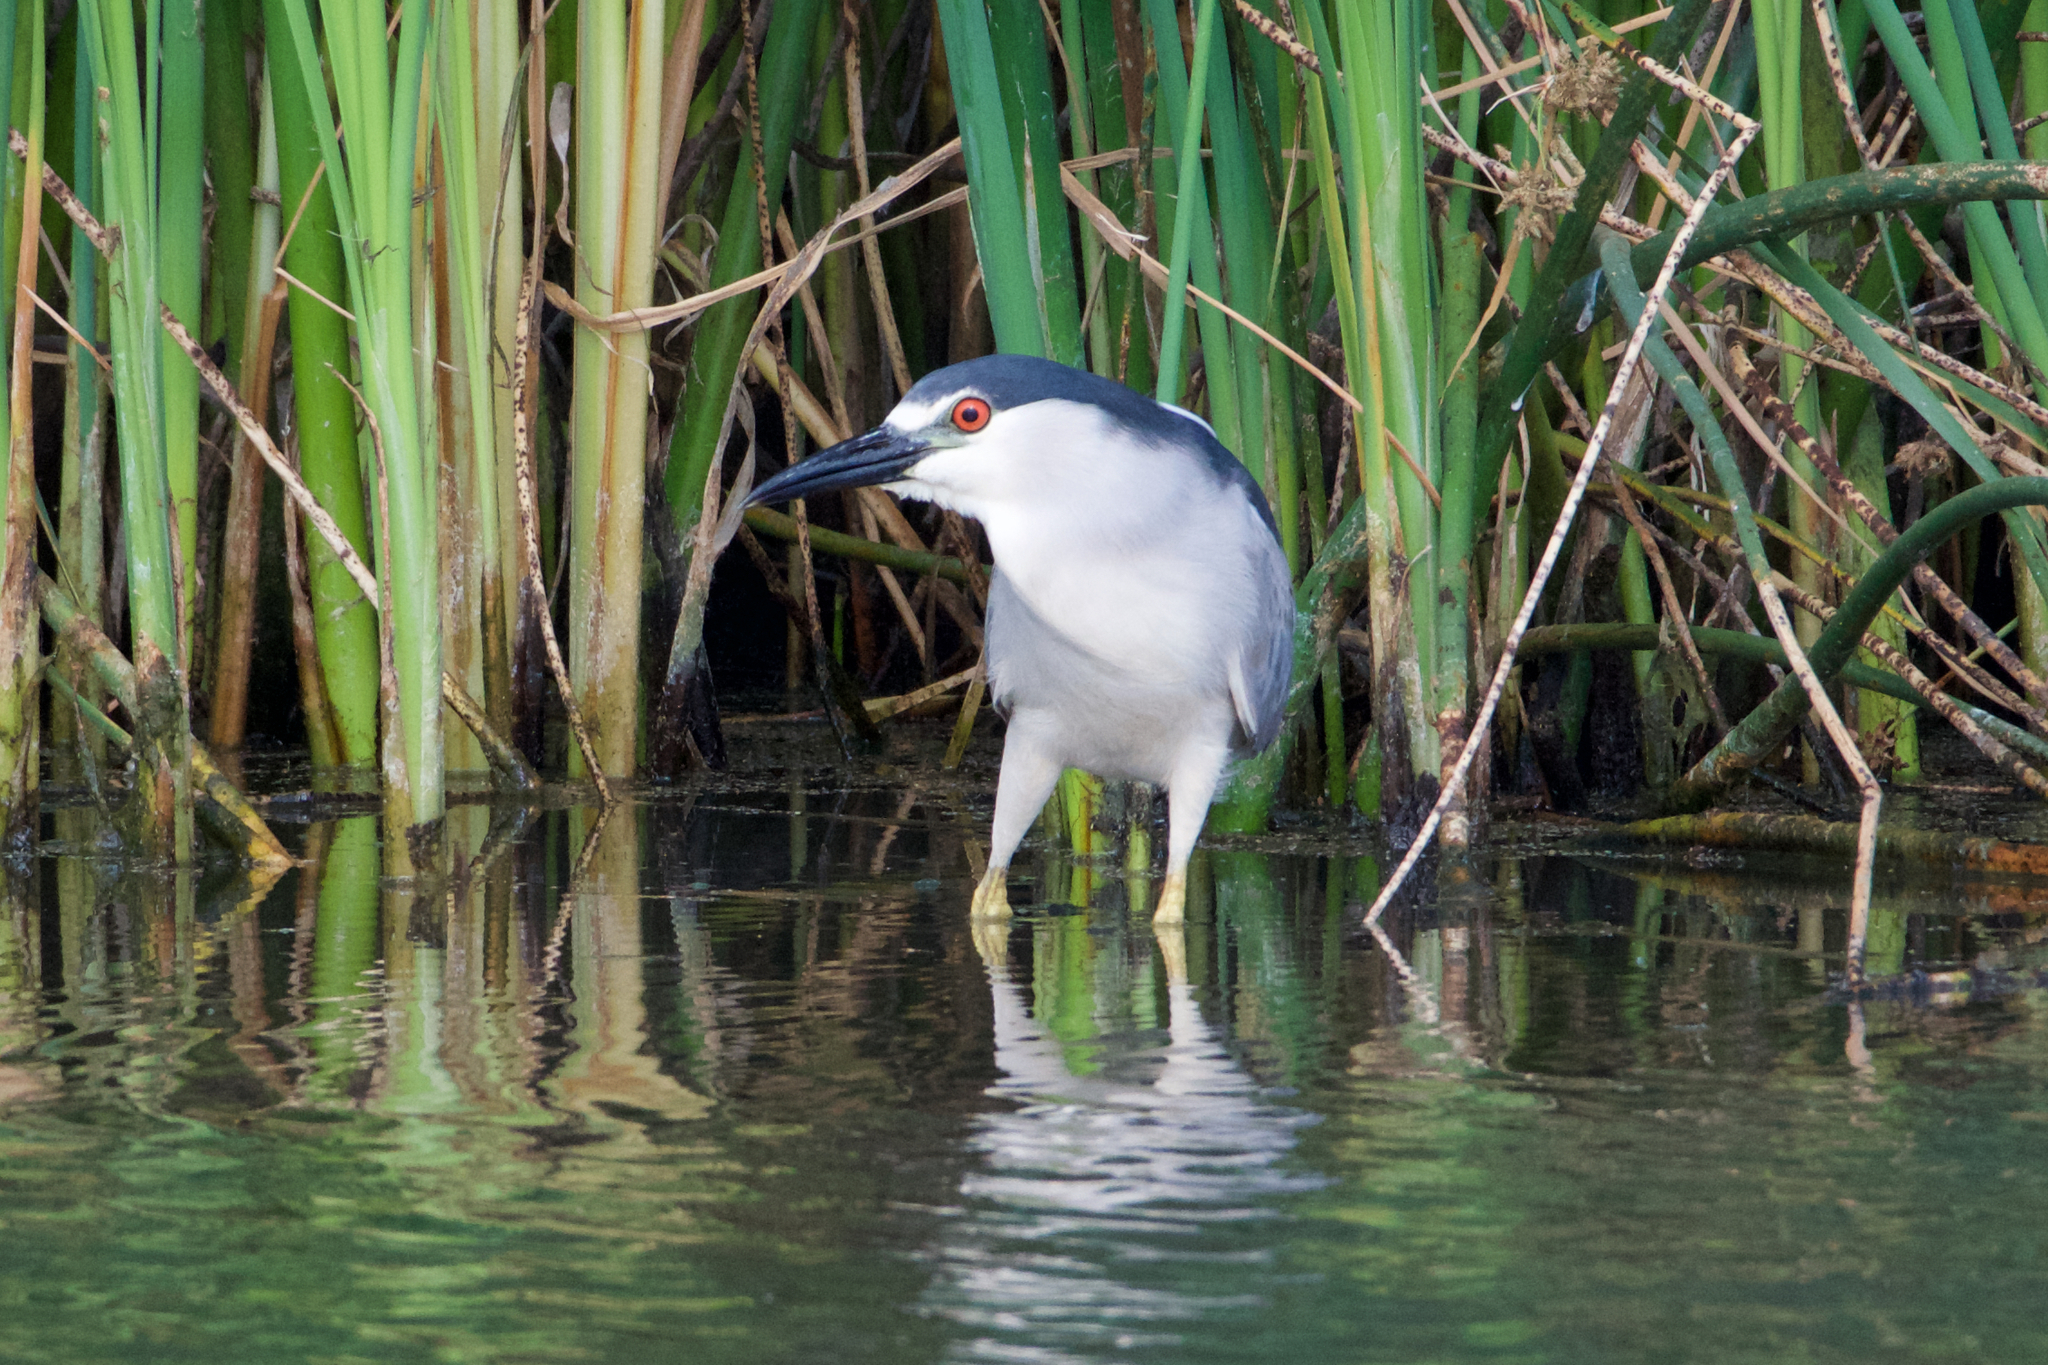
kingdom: Animalia
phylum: Chordata
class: Aves
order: Pelecaniformes
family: Ardeidae
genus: Nycticorax
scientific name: Nycticorax nycticorax
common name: Black-crowned night heron
